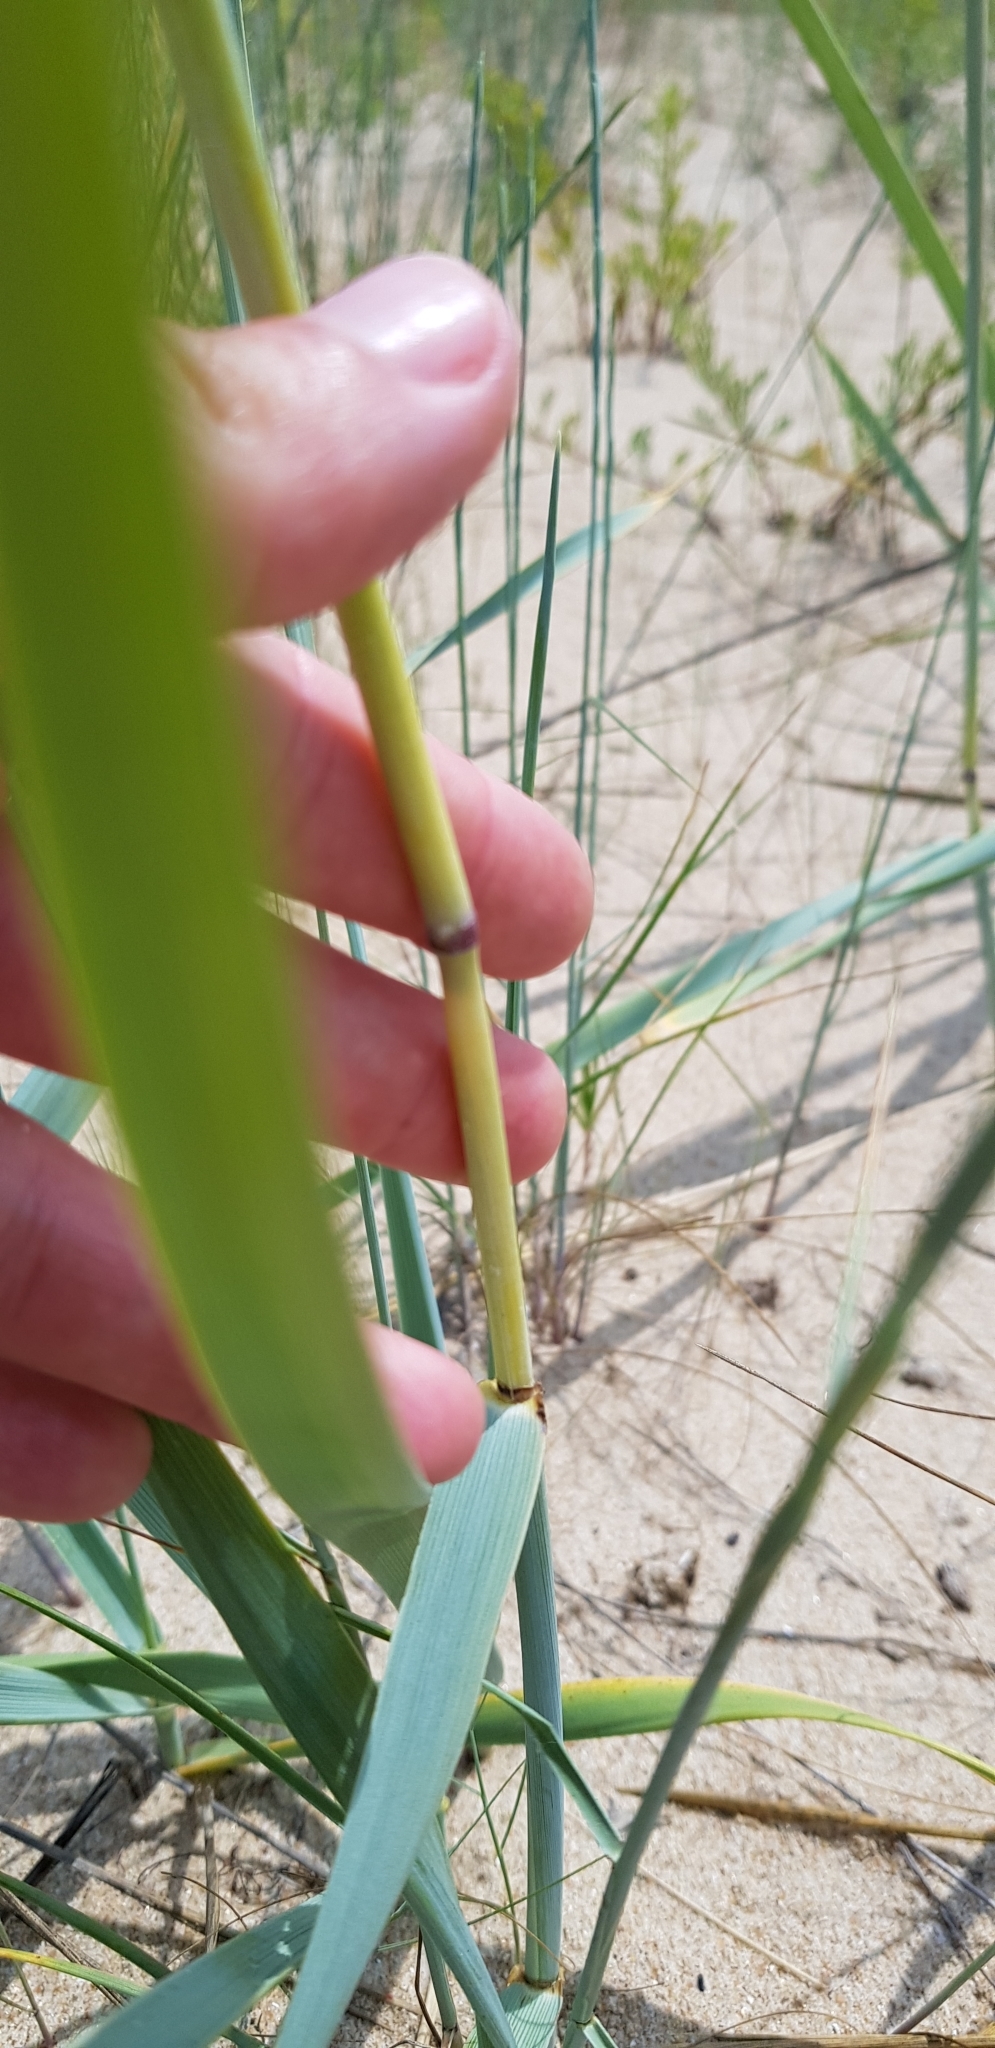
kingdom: Plantae
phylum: Tracheophyta
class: Liliopsida
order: Poales
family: Poaceae
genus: Leymus
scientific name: Leymus racemosus
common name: Mammoth wildrye
